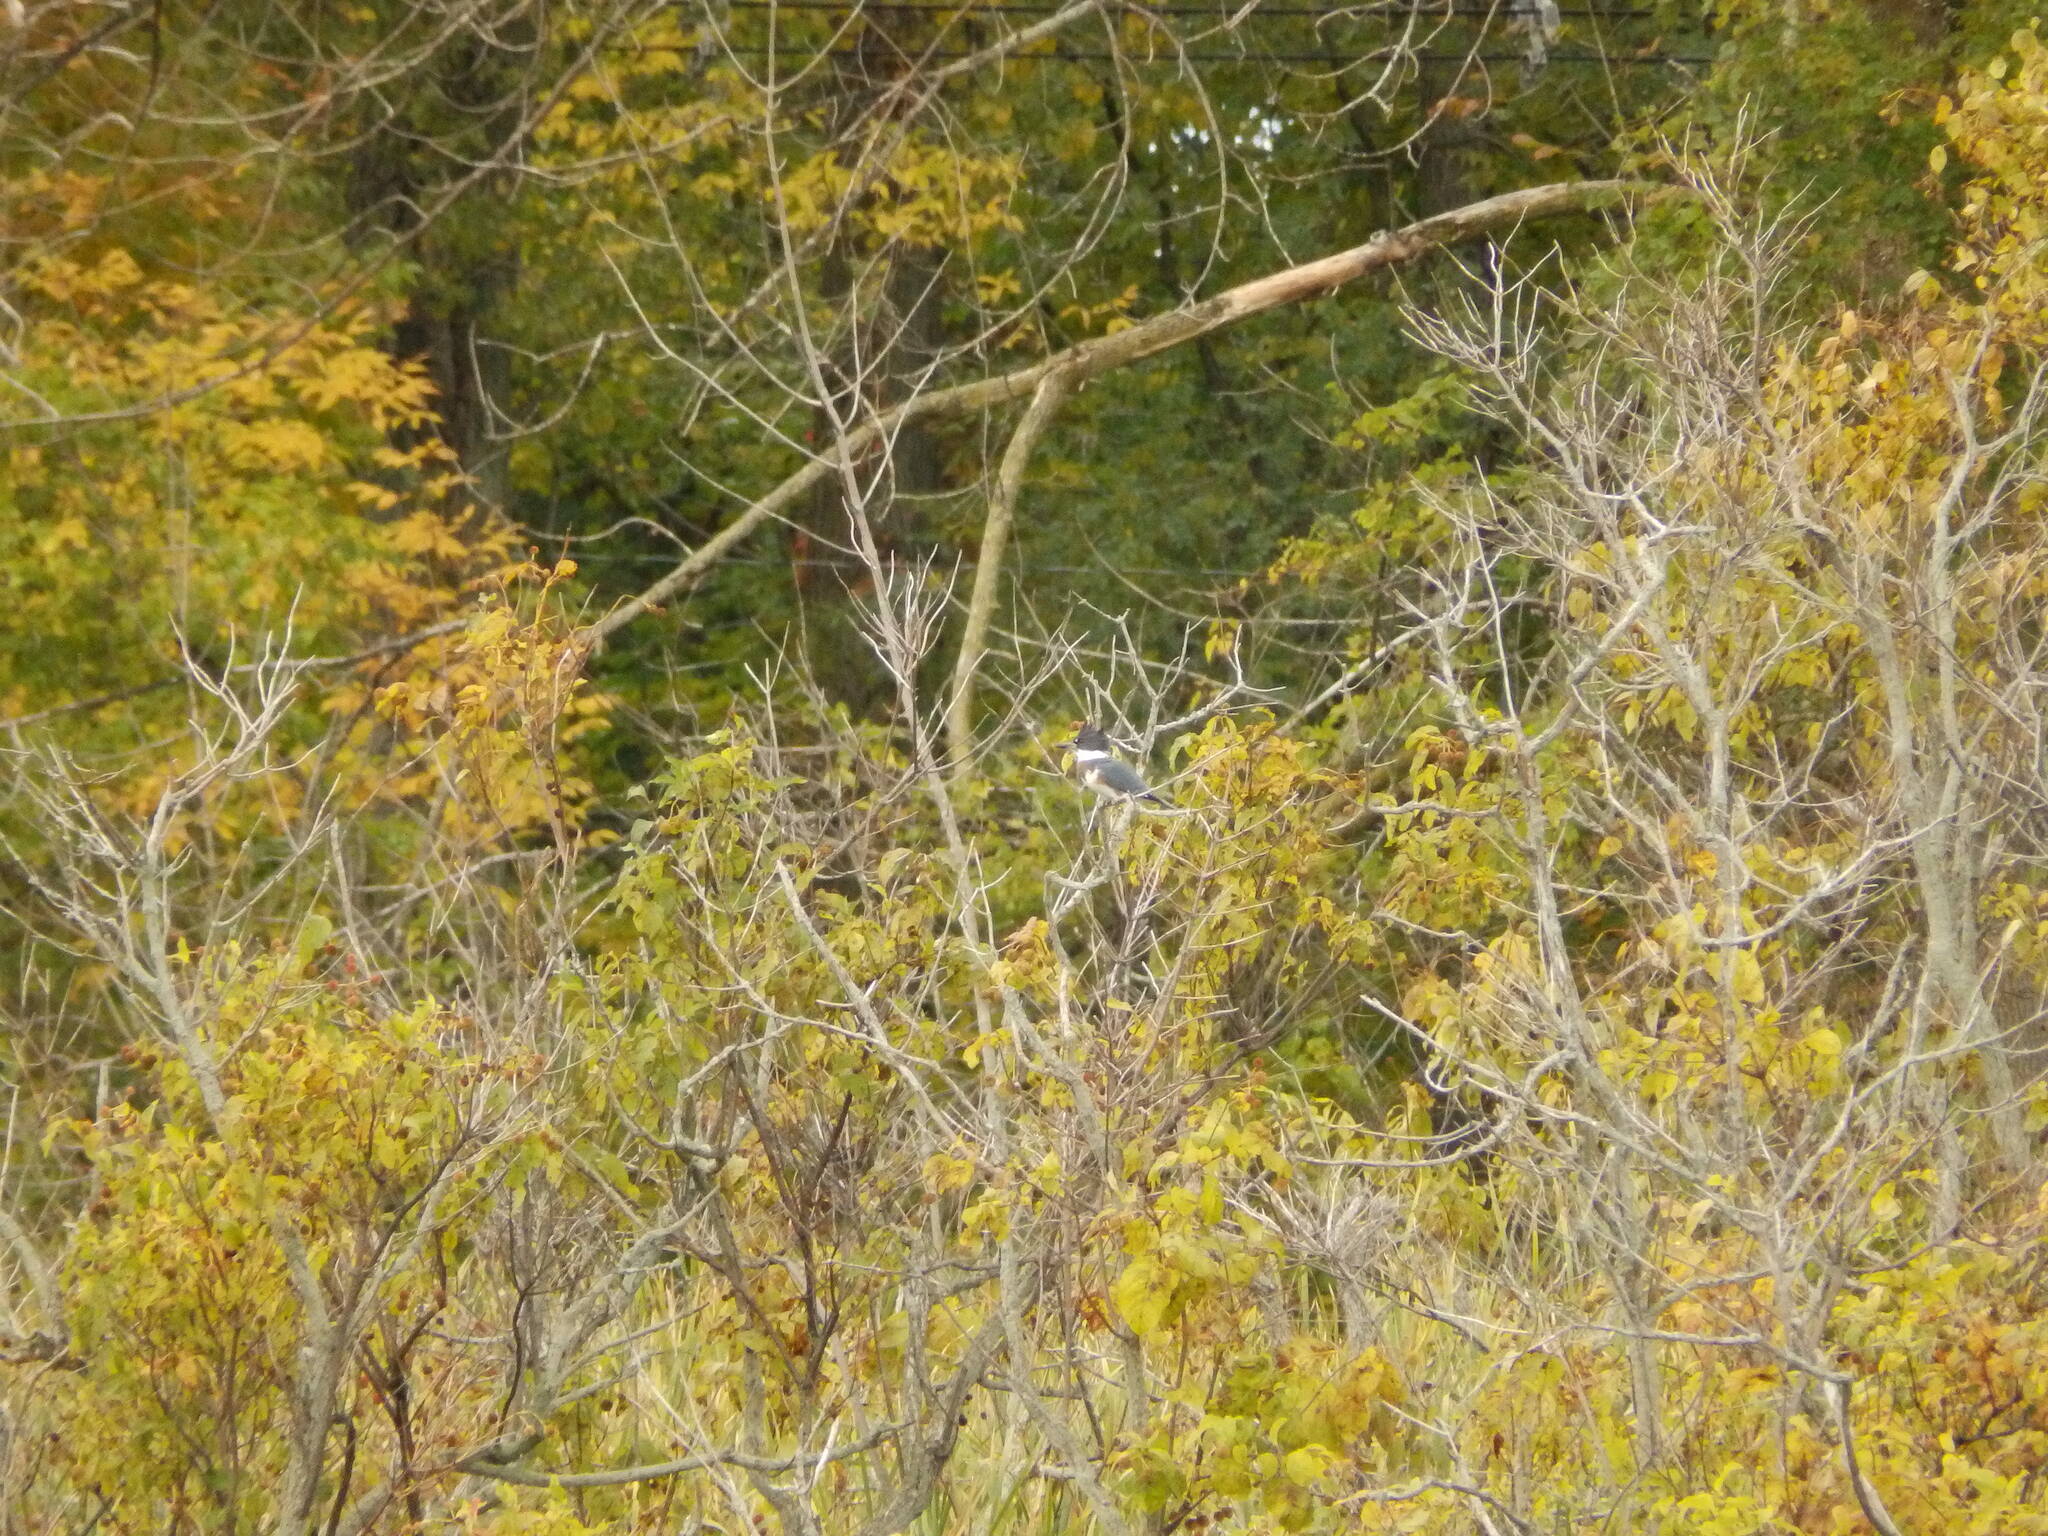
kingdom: Animalia
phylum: Chordata
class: Aves
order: Coraciiformes
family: Alcedinidae
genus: Megaceryle
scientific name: Megaceryle alcyon
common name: Belted kingfisher
